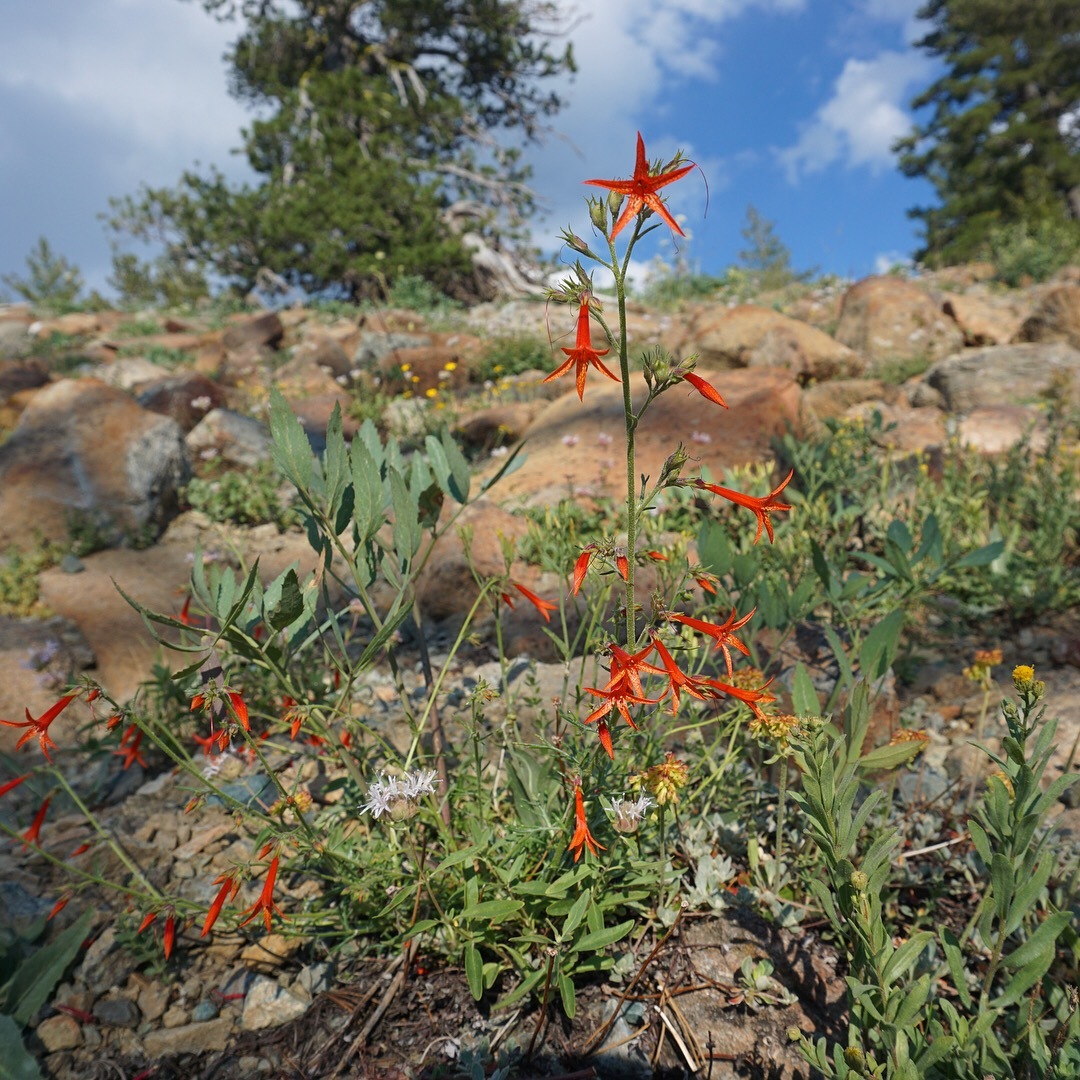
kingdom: Plantae
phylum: Tracheophyta
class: Magnoliopsida
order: Ericales
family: Polemoniaceae
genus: Ipomopsis
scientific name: Ipomopsis aggregata
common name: Scarlet gilia
